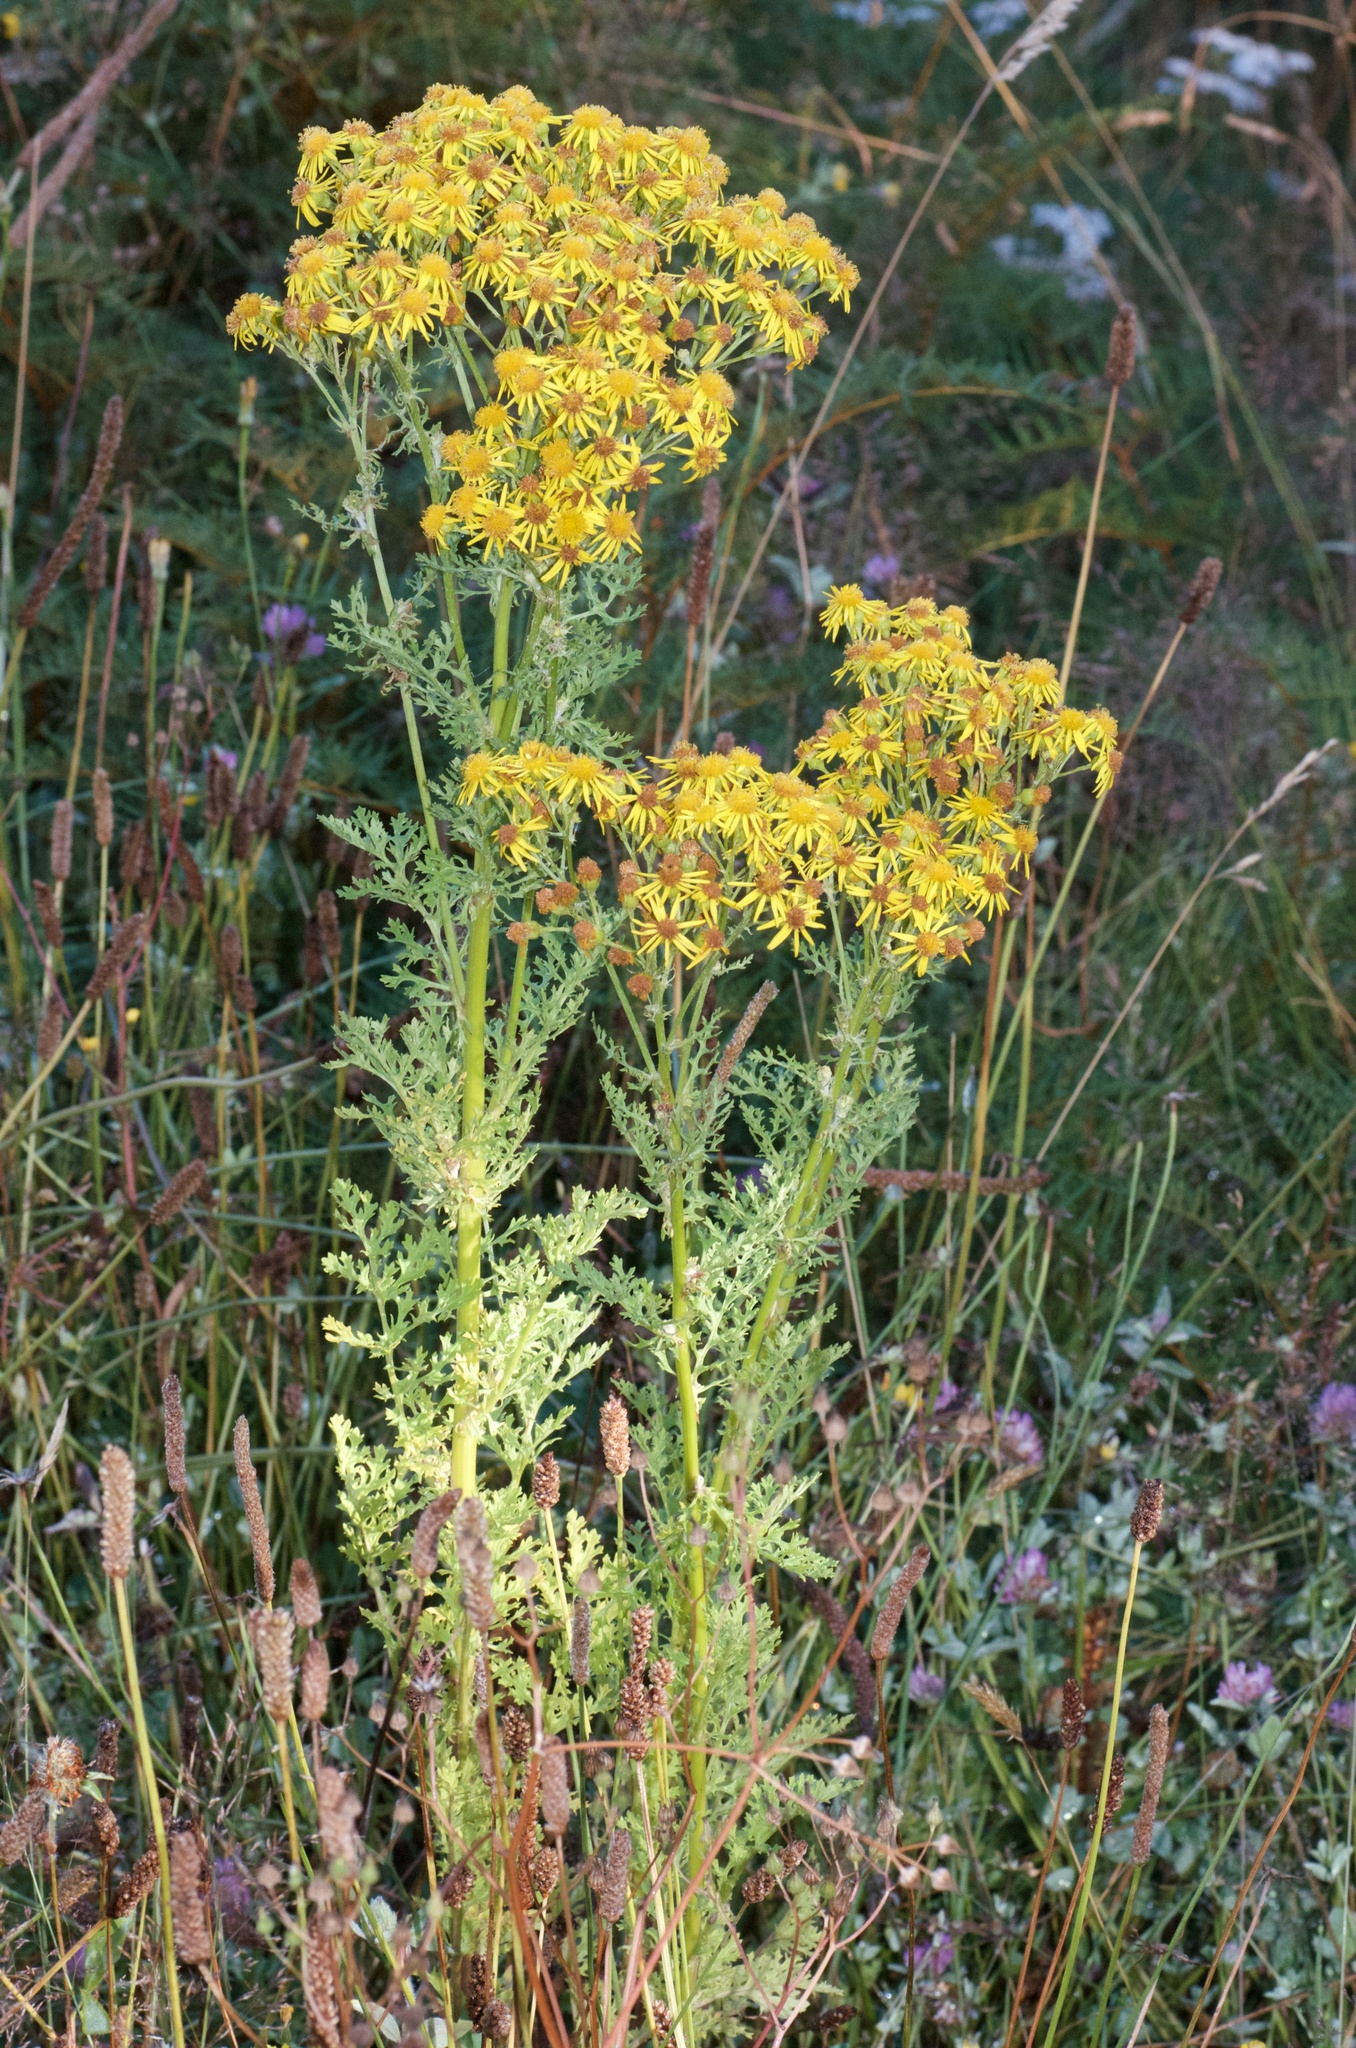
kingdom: Plantae
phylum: Tracheophyta
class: Magnoliopsida
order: Asterales
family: Asteraceae
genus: Jacobaea
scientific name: Jacobaea vulgaris
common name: Stinking willie
